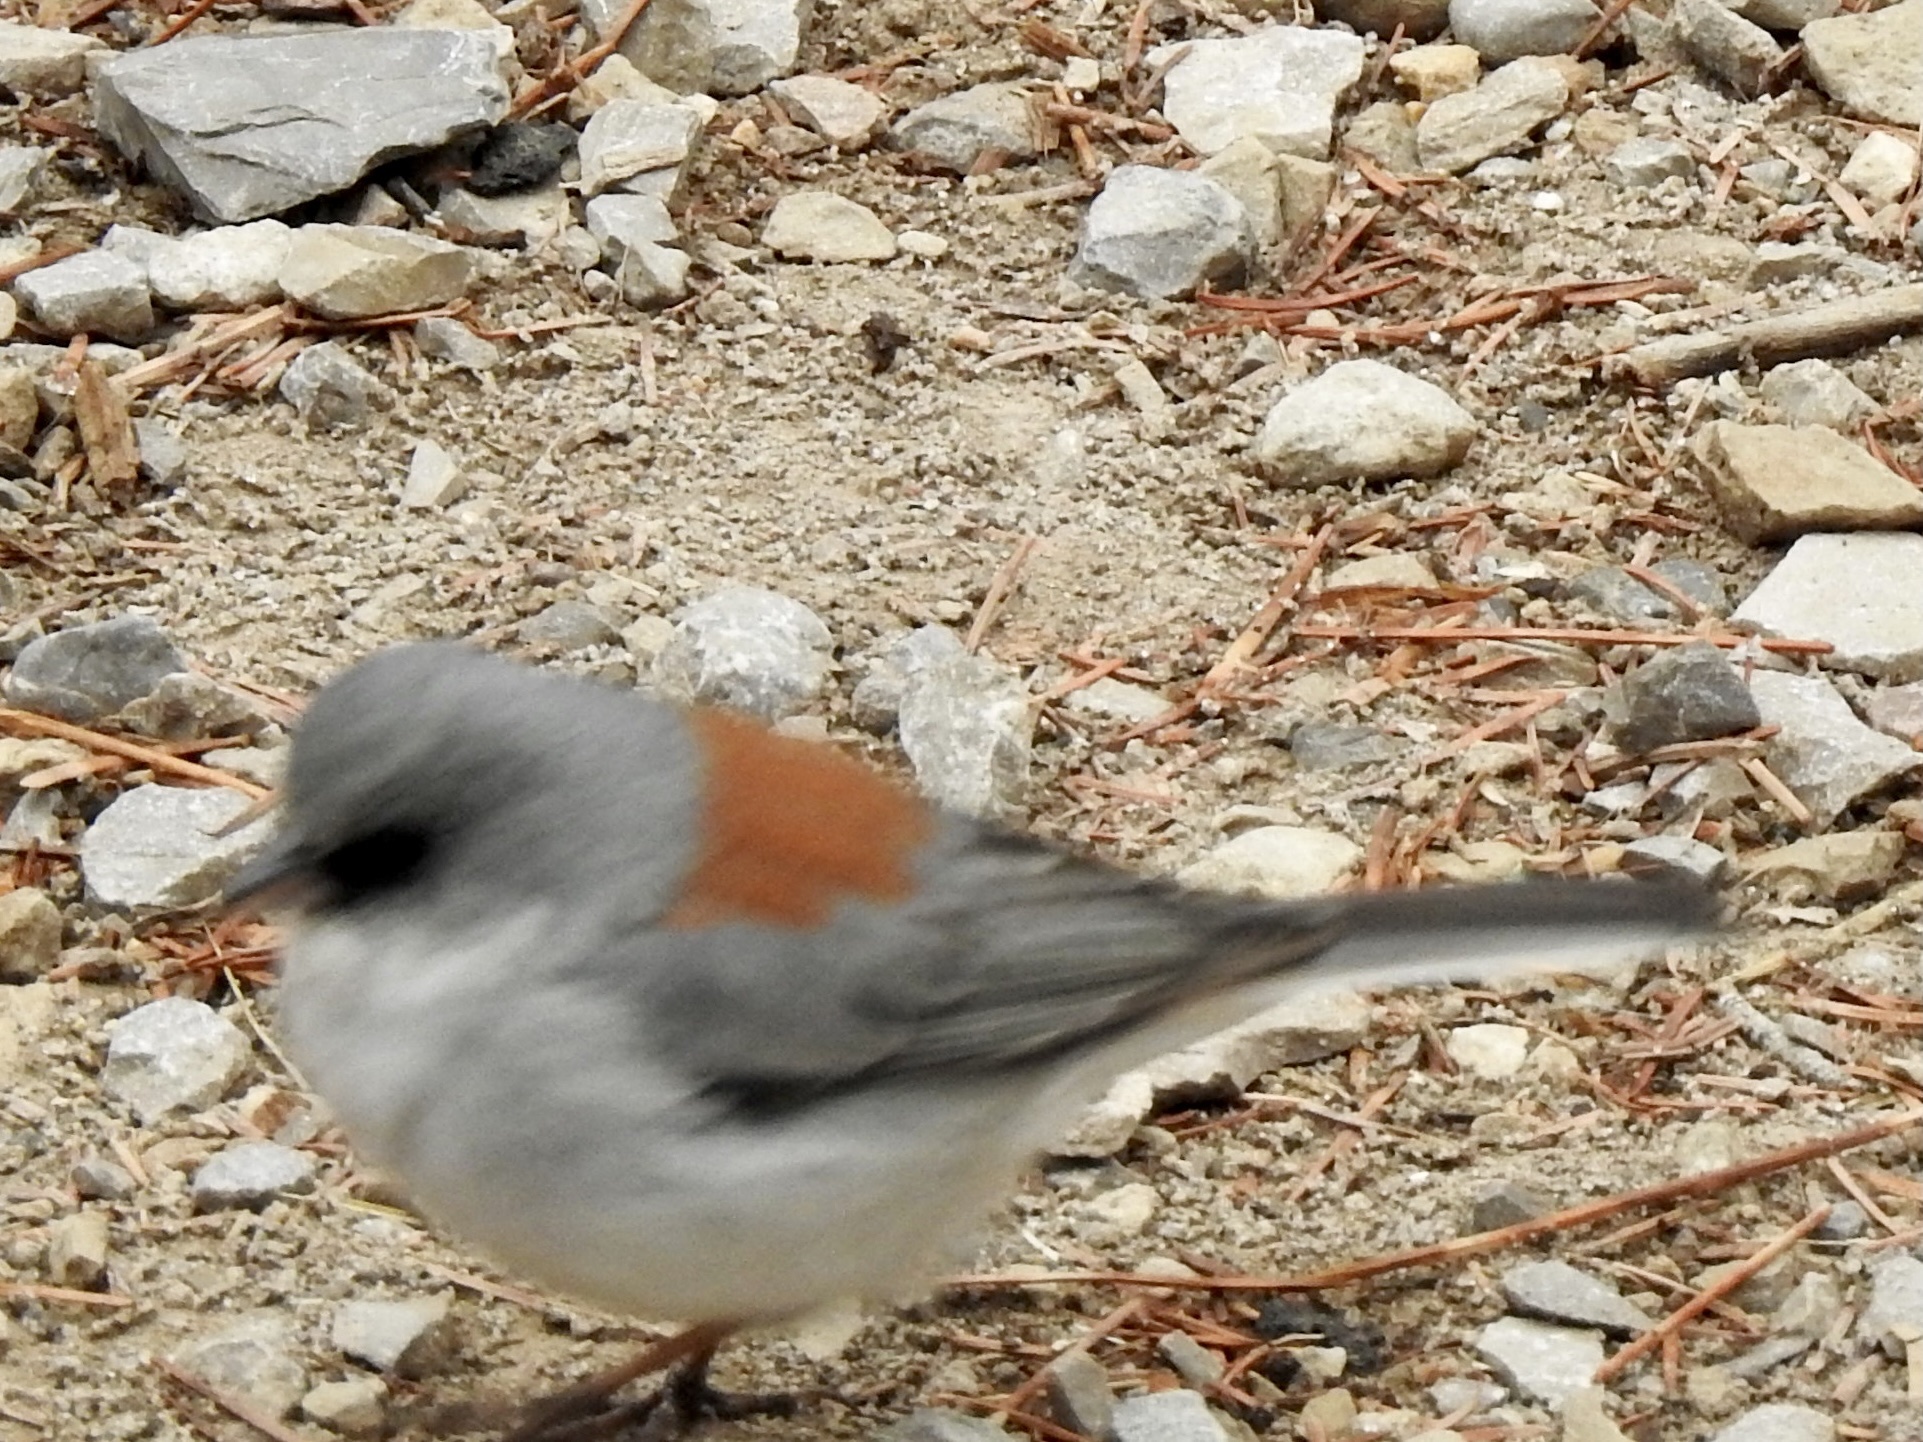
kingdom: Animalia
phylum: Chordata
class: Aves
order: Passeriformes
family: Passerellidae
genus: Junco
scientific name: Junco hyemalis
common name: Dark-eyed junco
